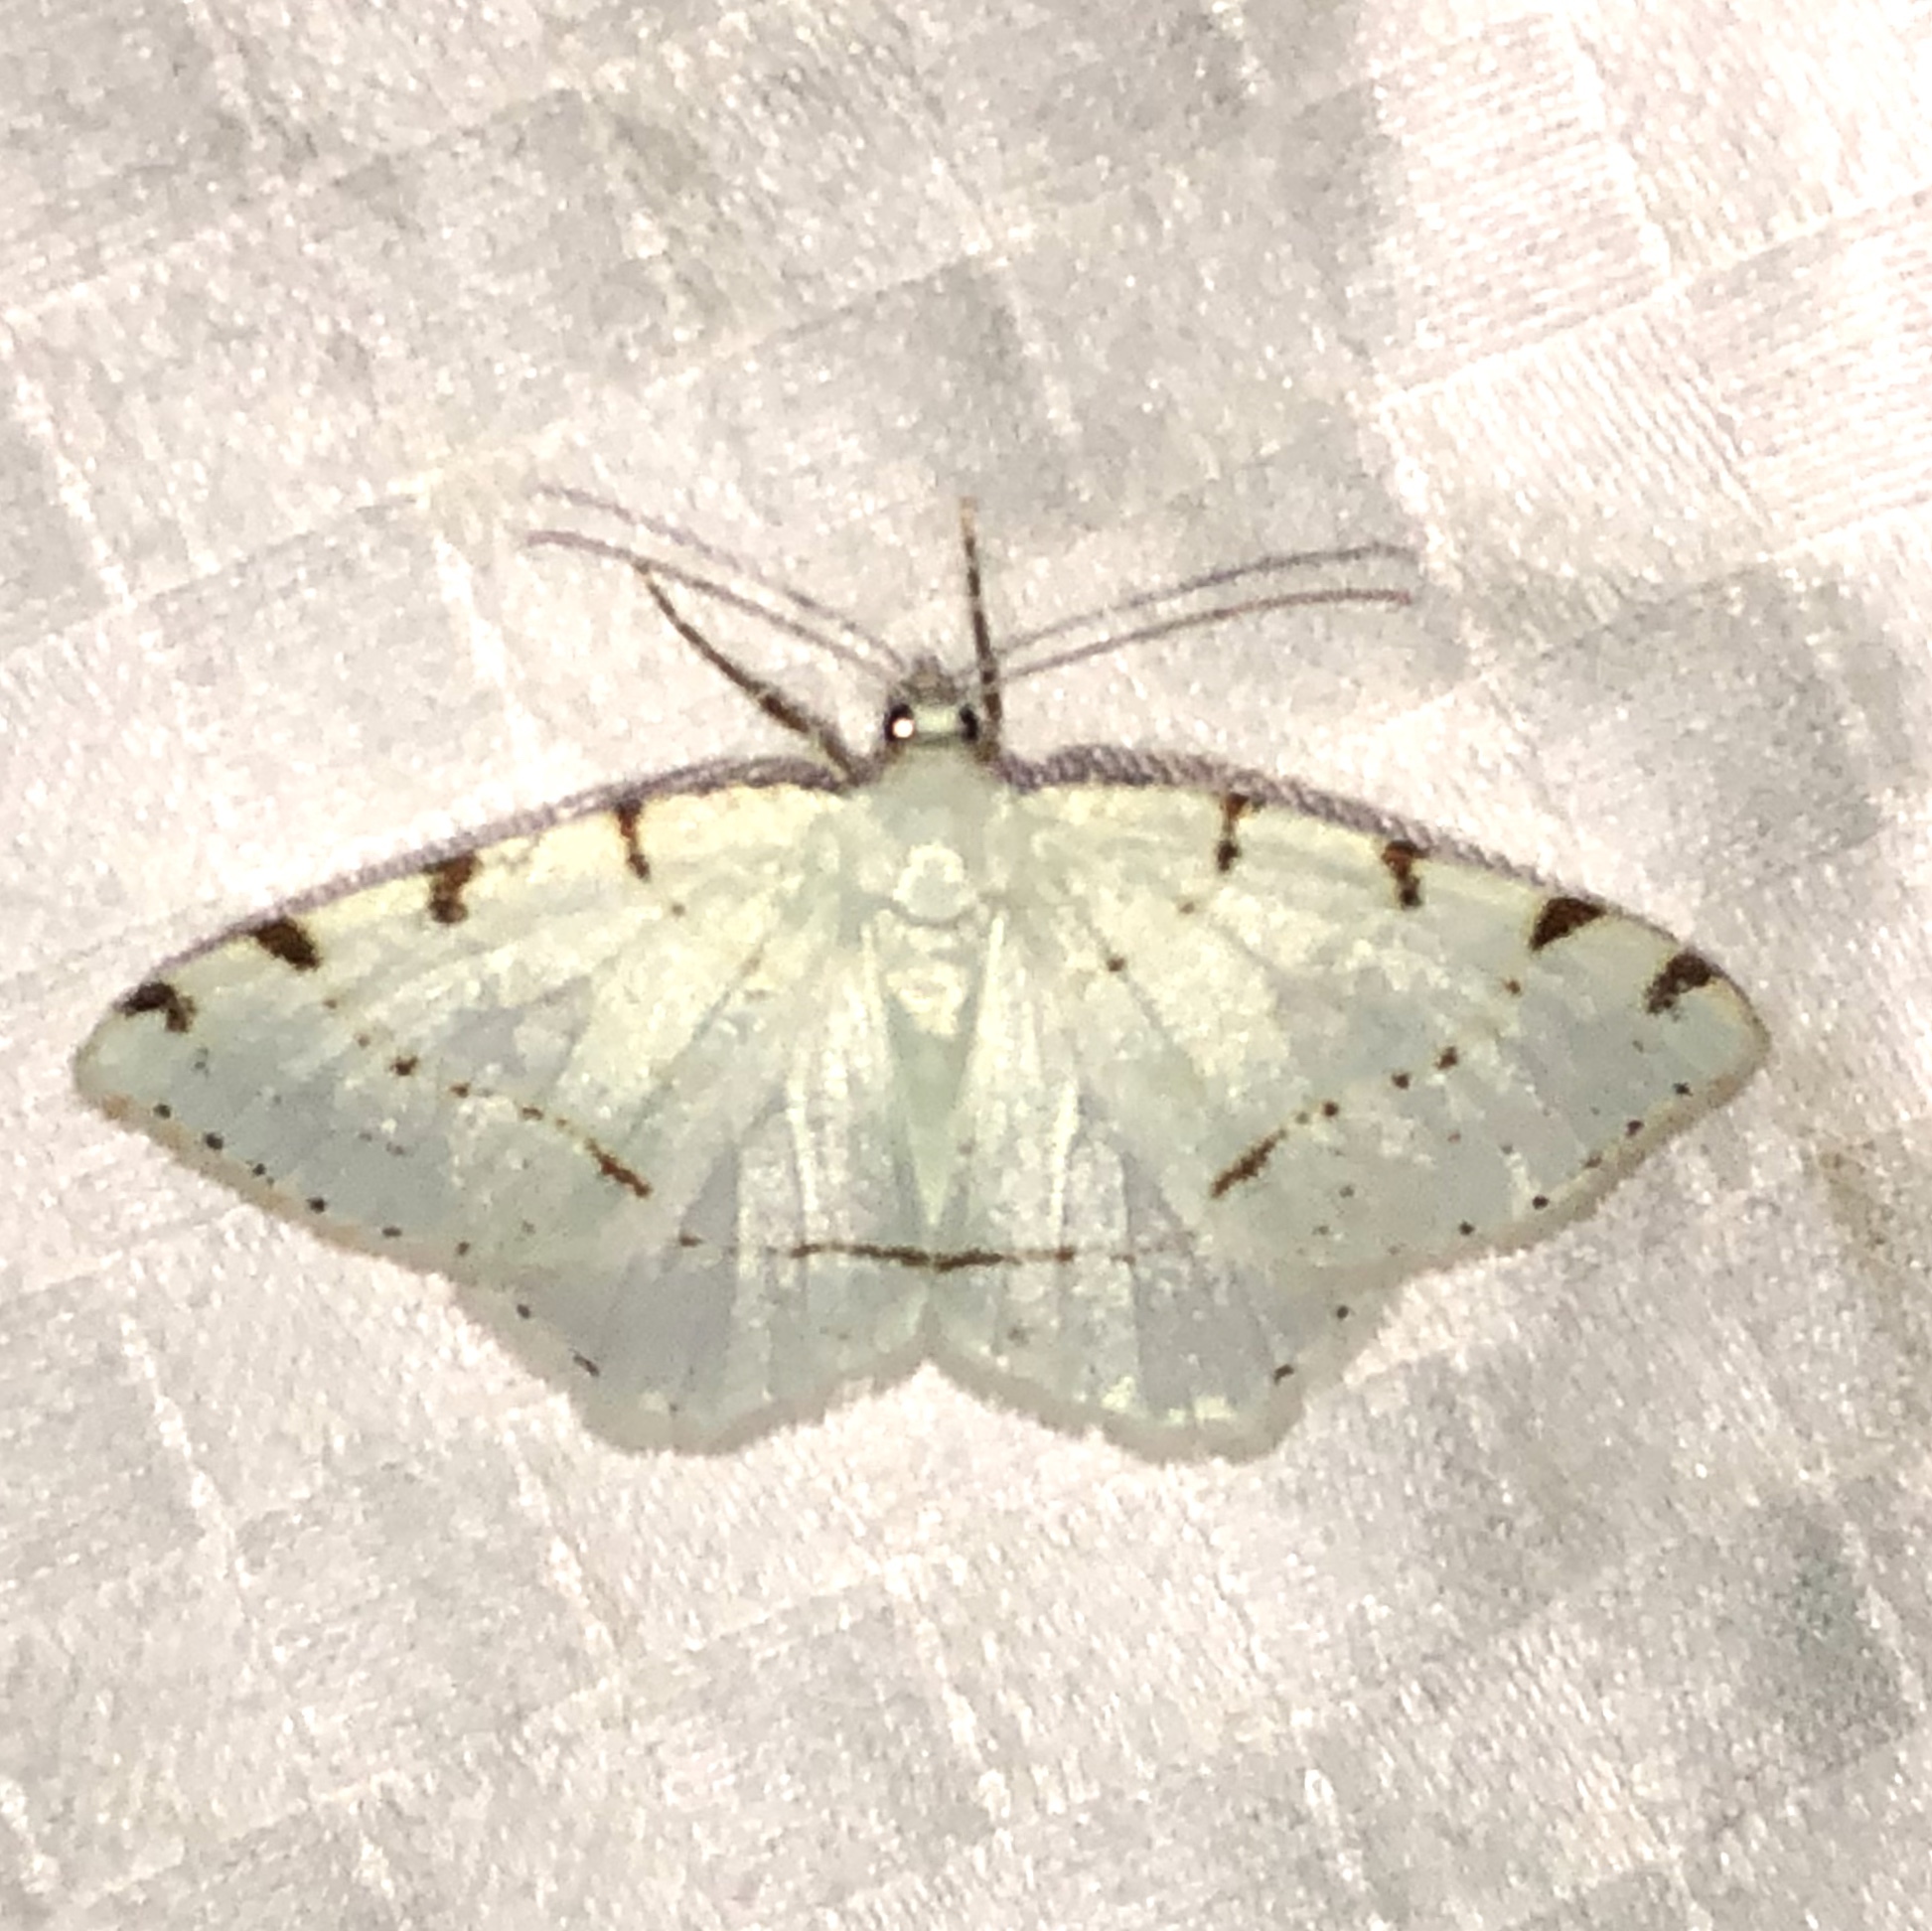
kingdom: Animalia
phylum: Arthropoda
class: Insecta
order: Lepidoptera
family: Geometridae
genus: Macaria
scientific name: Macaria pustularia
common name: Lesser maple spanworm moth
